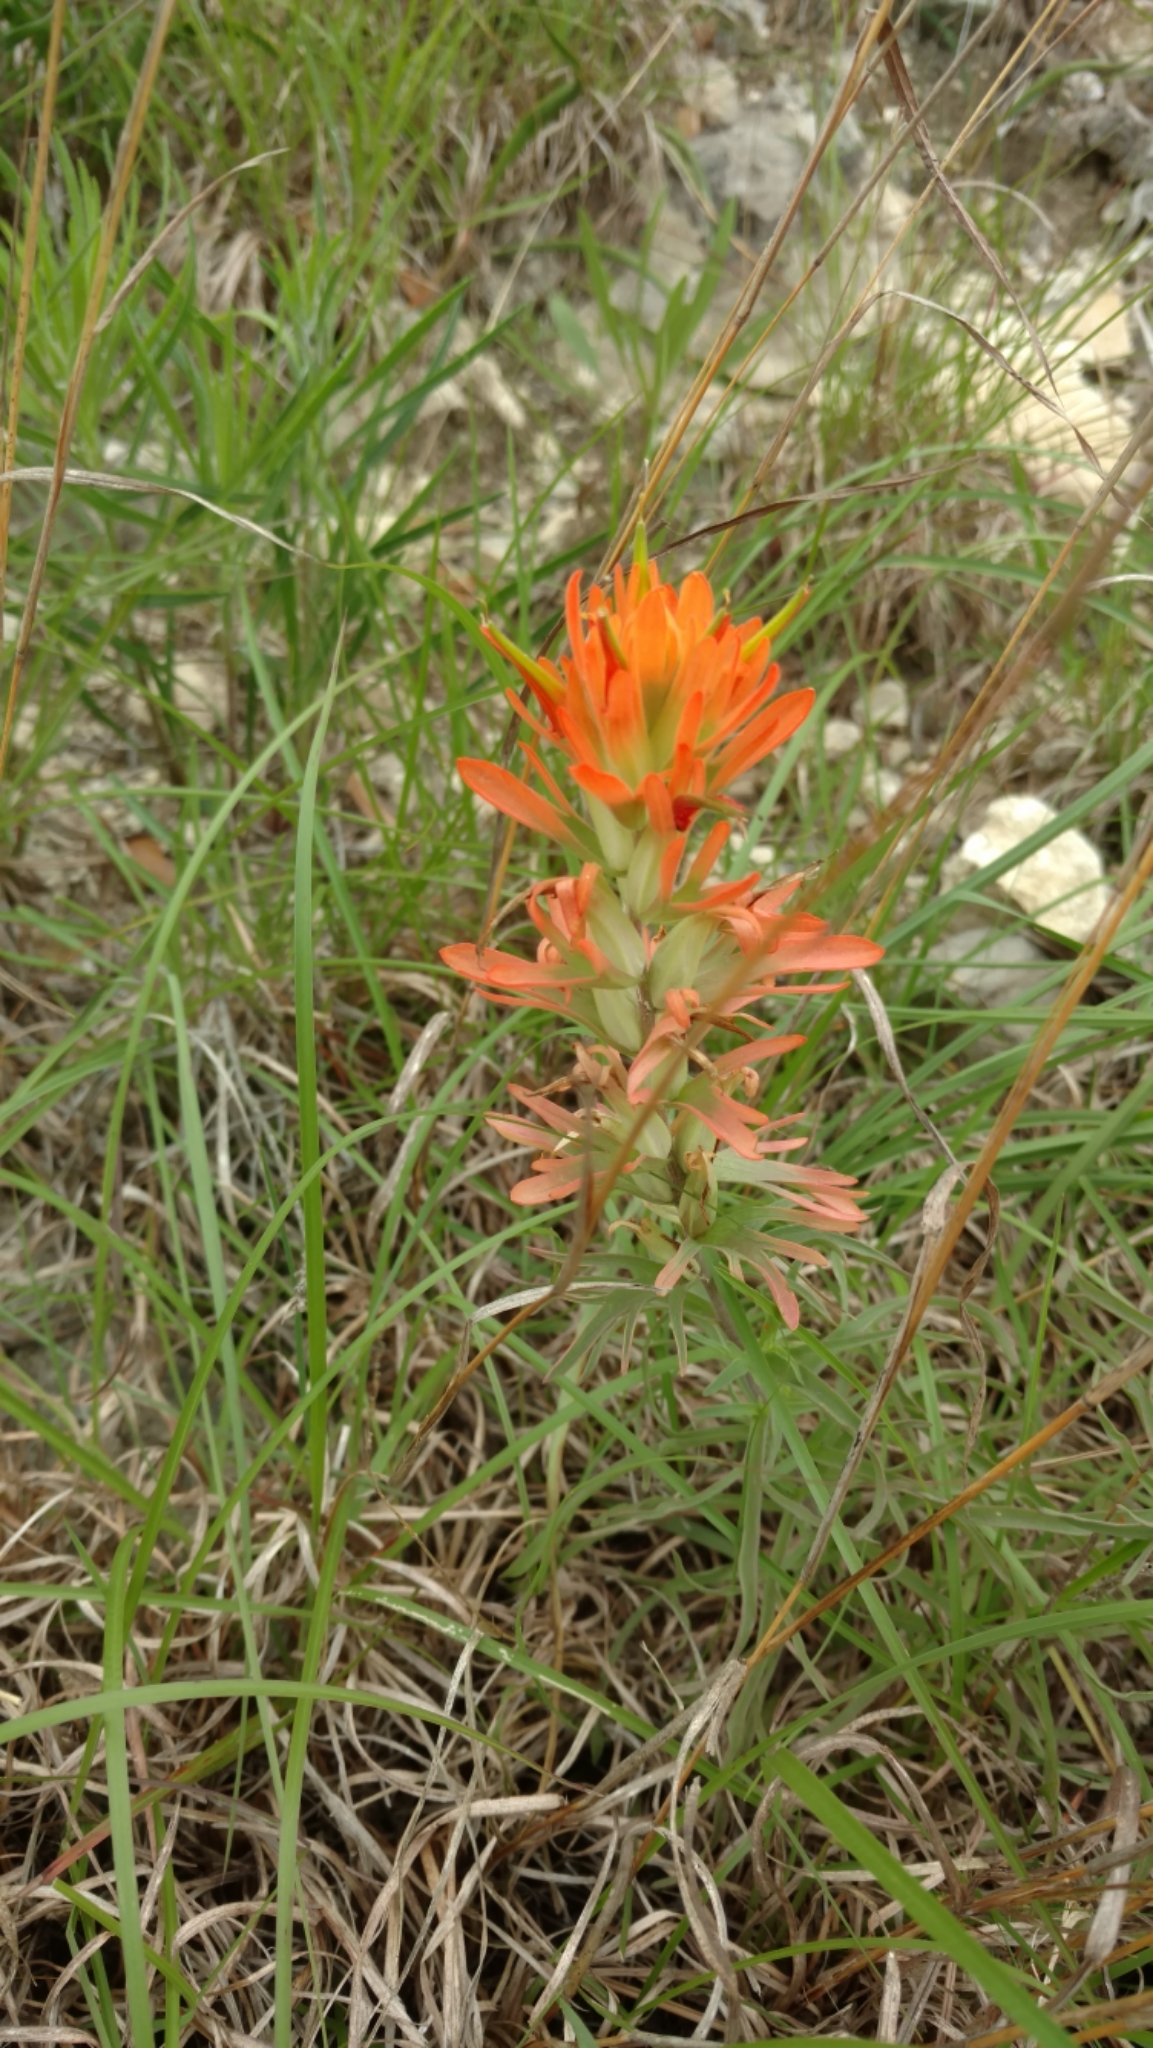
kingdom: Plantae
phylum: Tracheophyta
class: Magnoliopsida
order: Lamiales
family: Orobanchaceae
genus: Castilleja
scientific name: Castilleja lindheimeri
